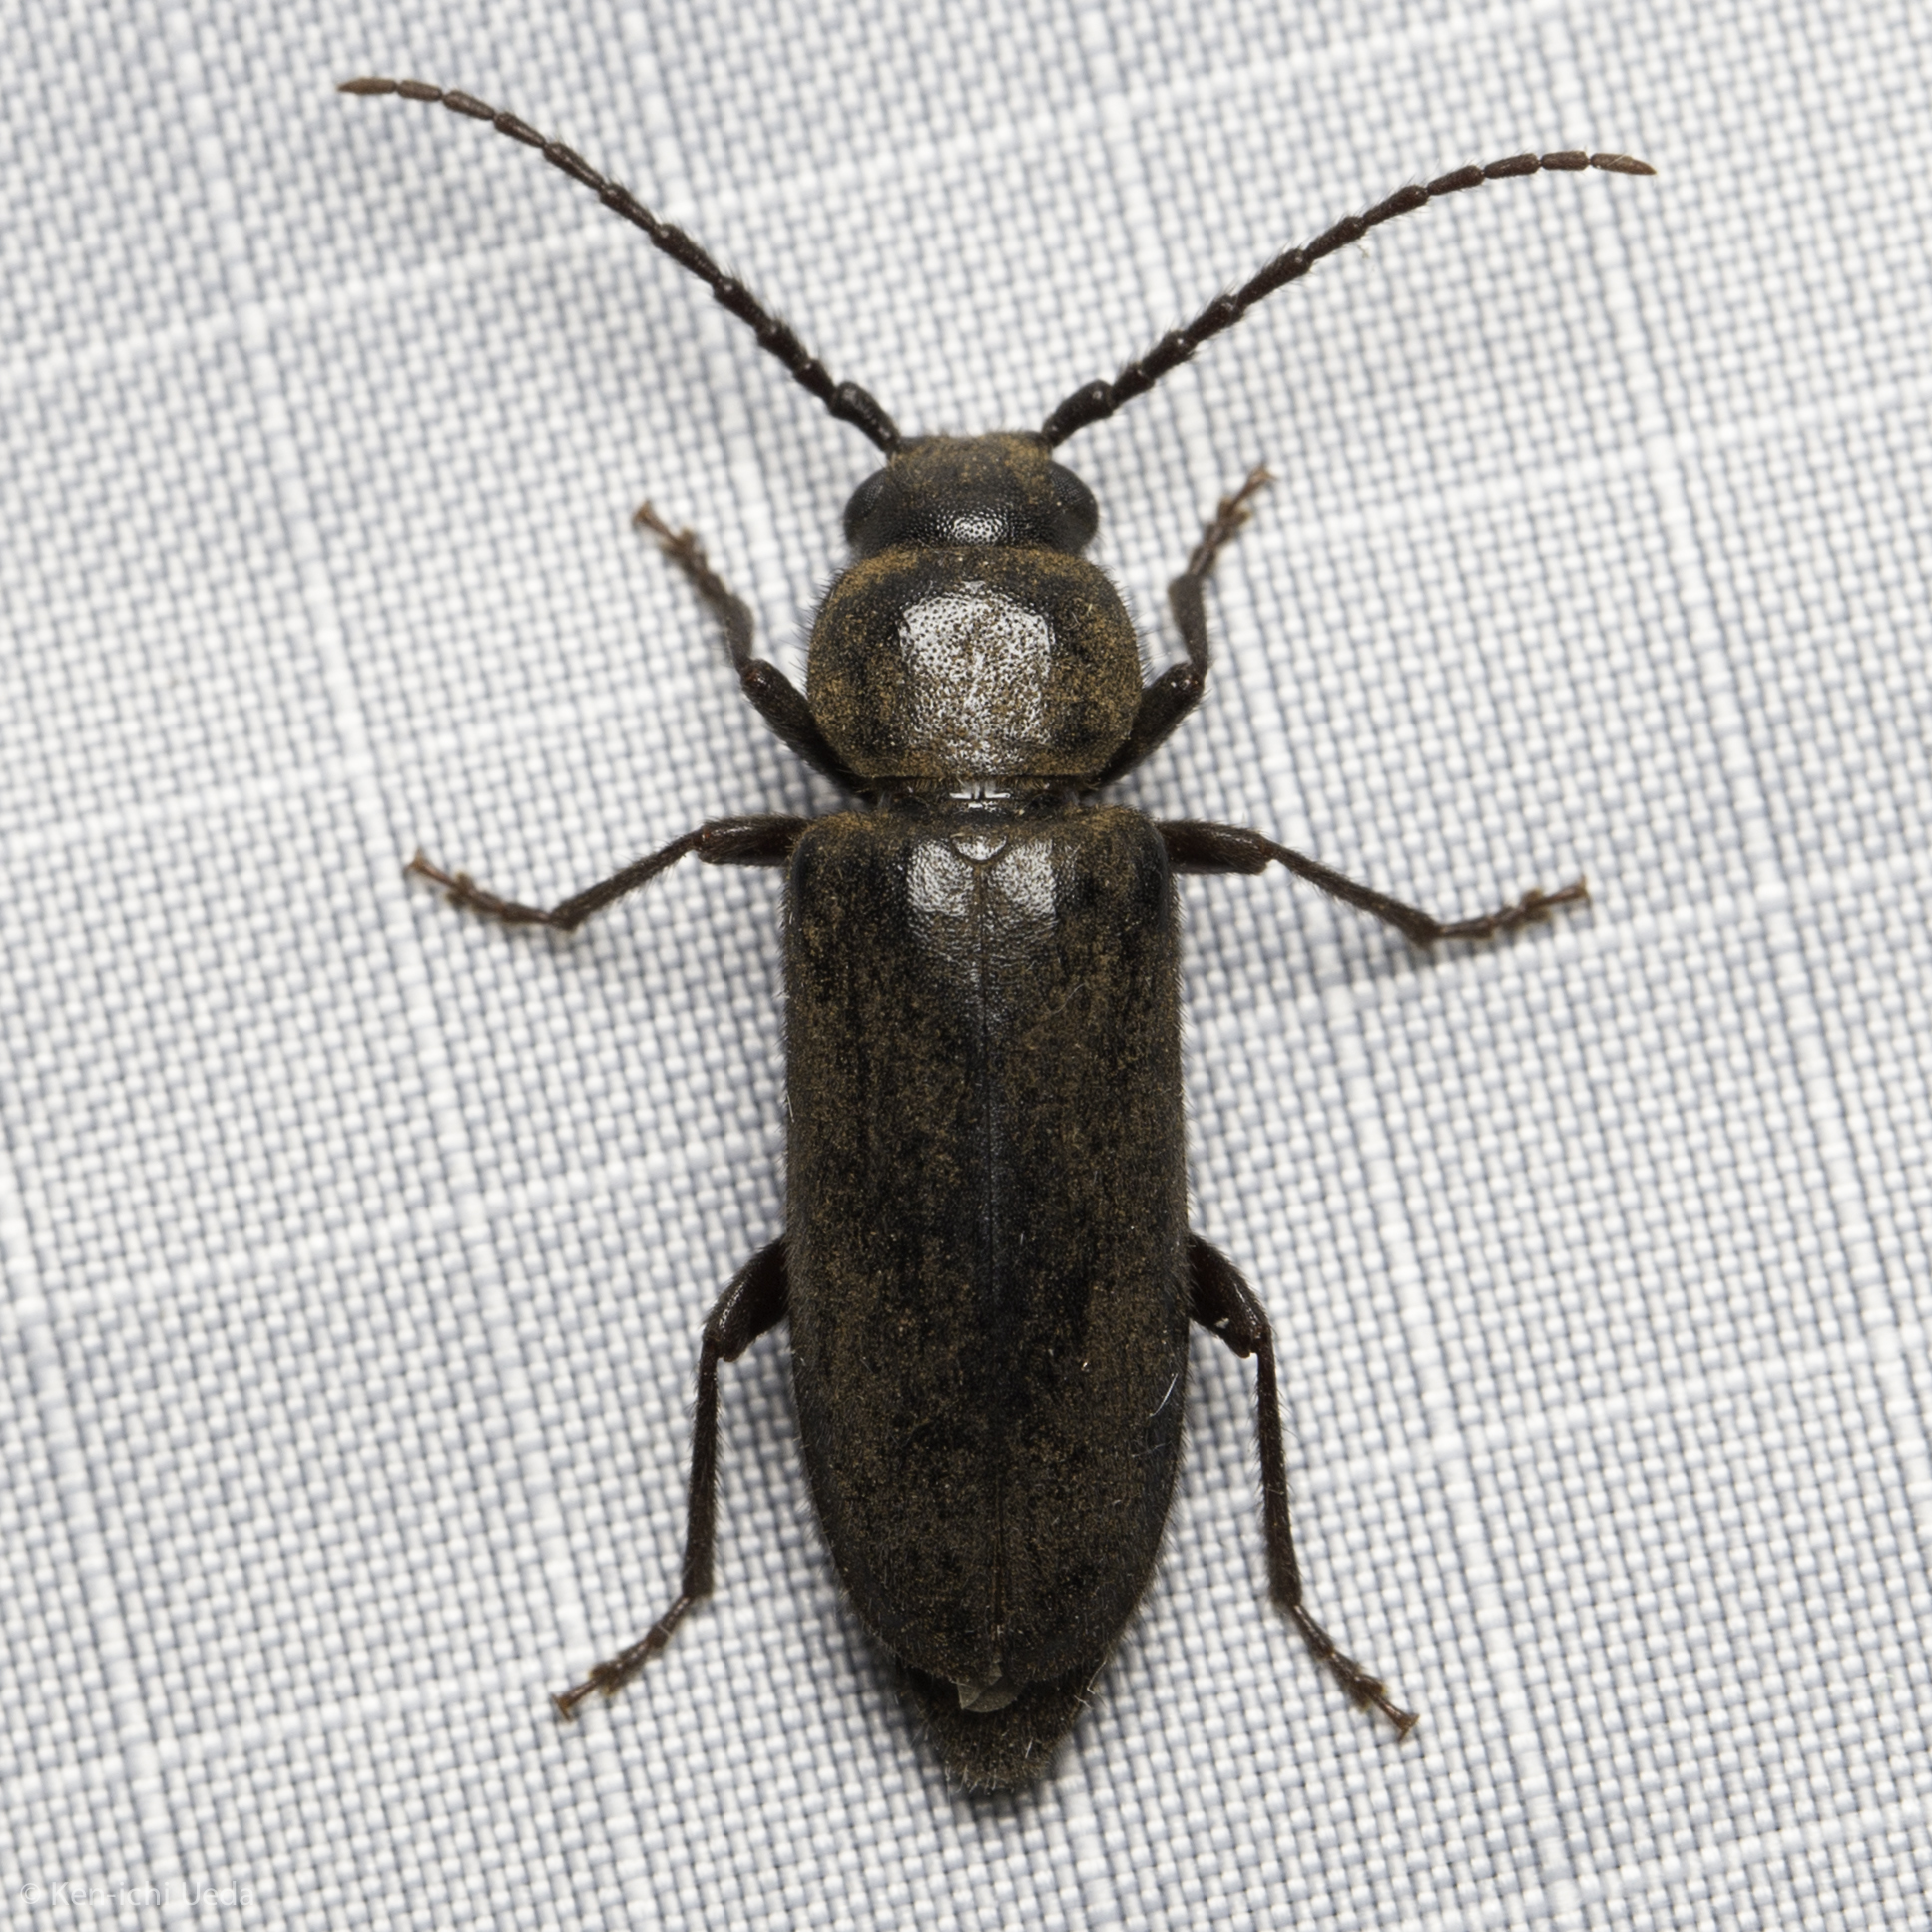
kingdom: Animalia
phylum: Arthropoda
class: Insecta
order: Coleoptera
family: Cerambycidae
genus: Asemum
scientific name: Asemum nitidum
